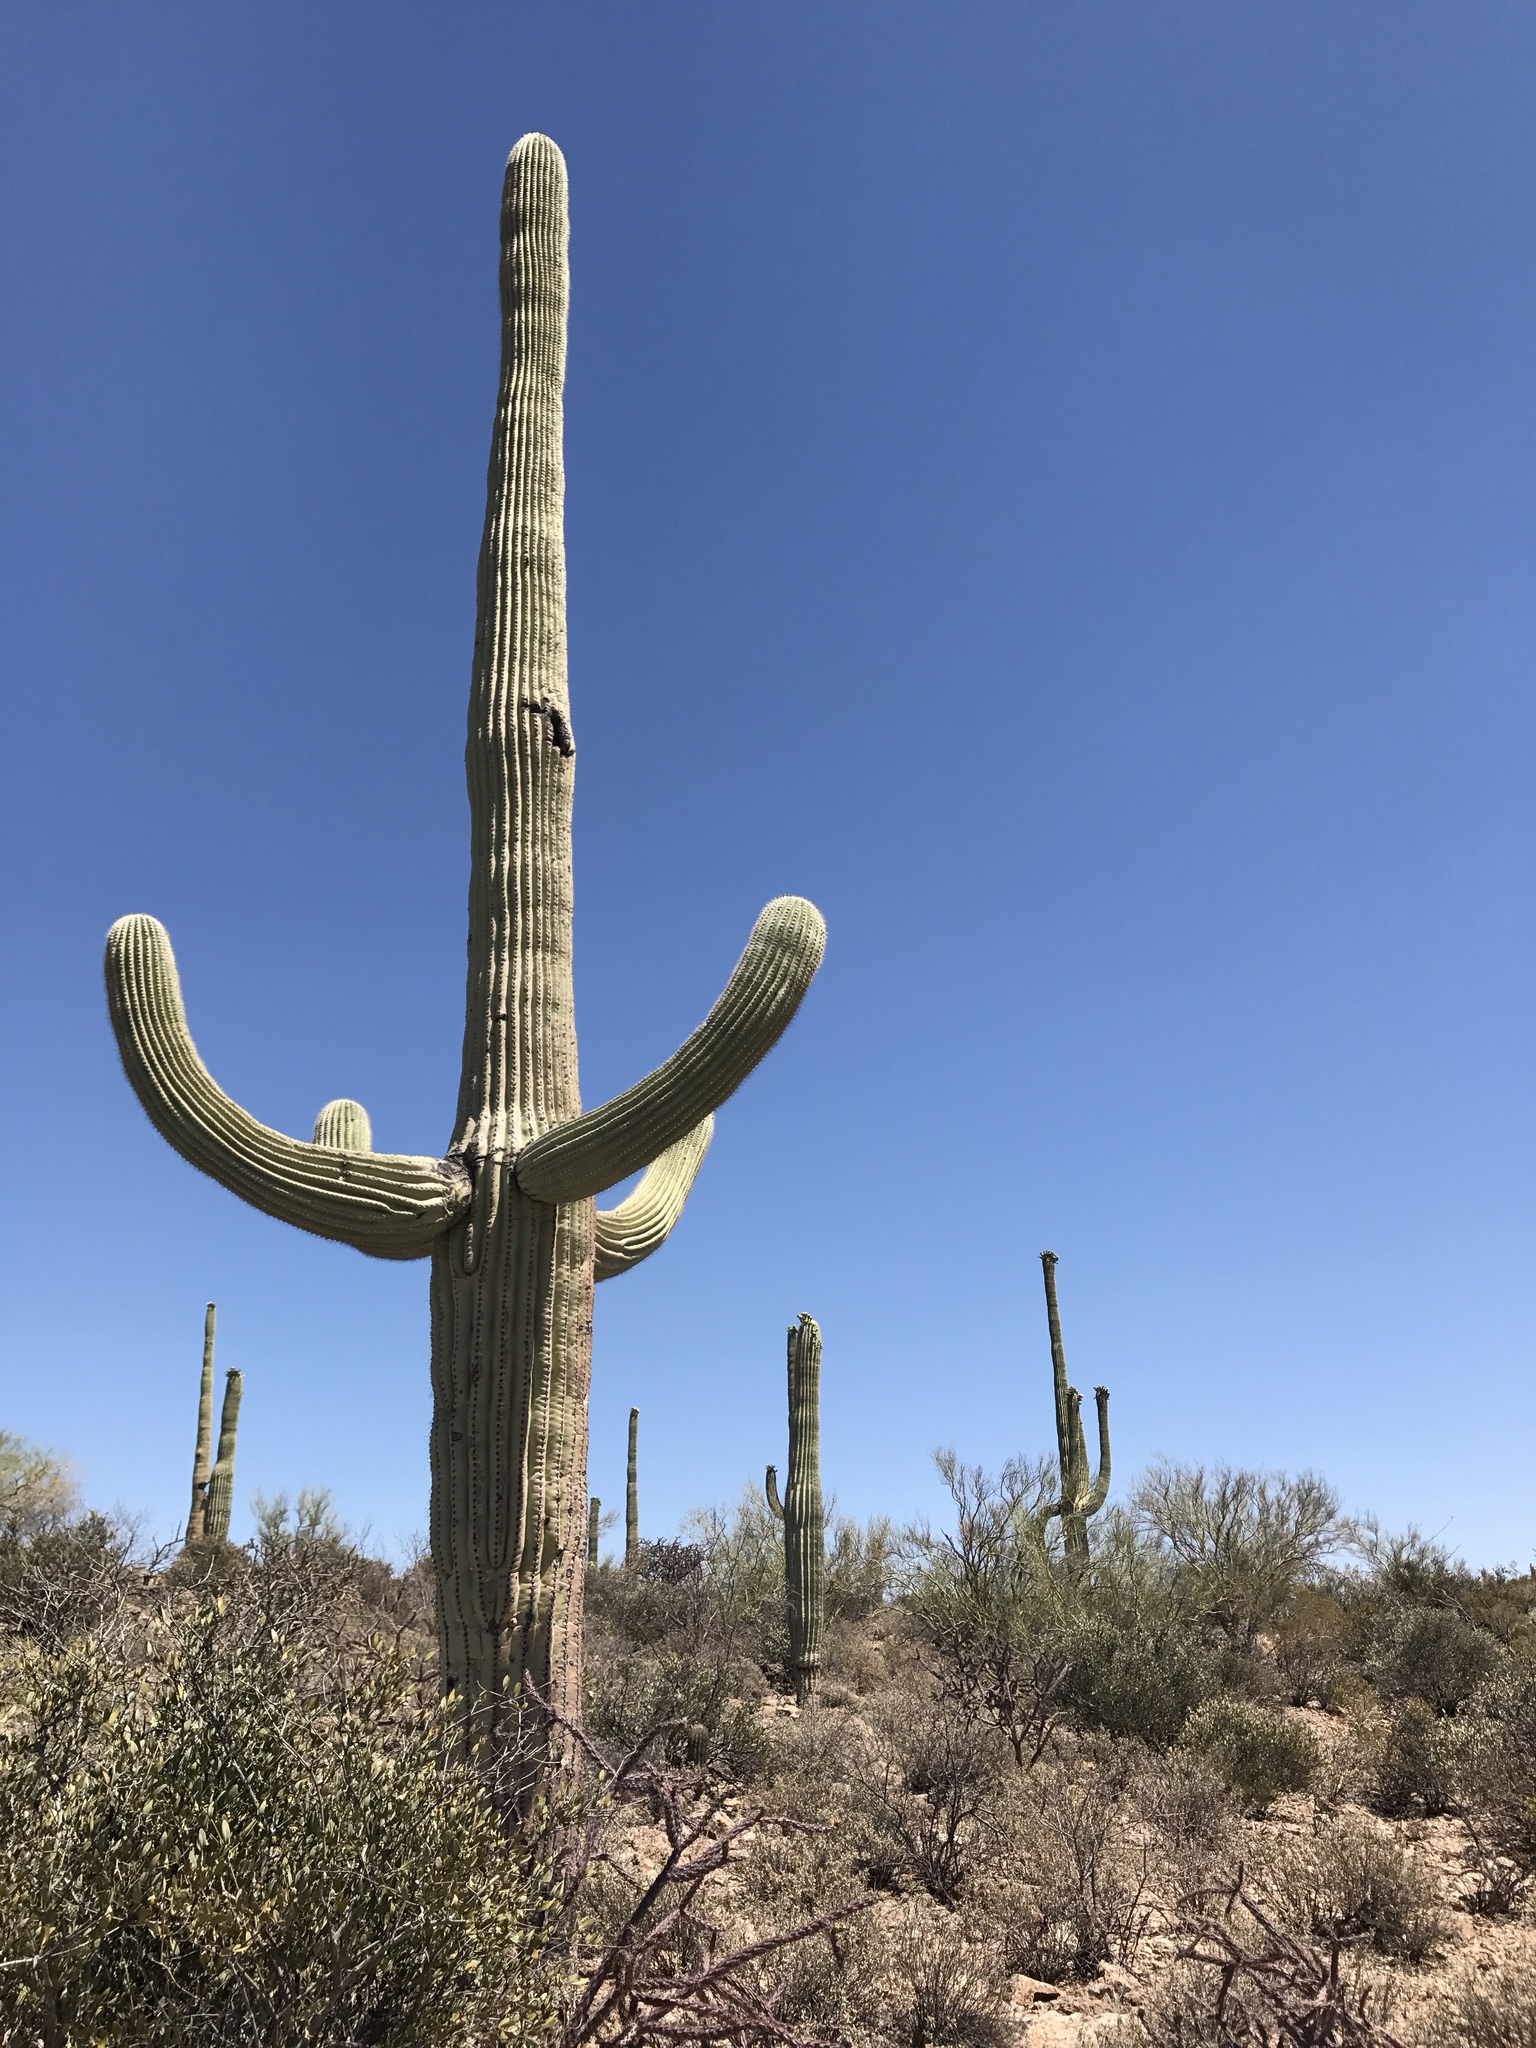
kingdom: Plantae
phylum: Tracheophyta
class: Magnoliopsida
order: Caryophyllales
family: Cactaceae
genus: Carnegiea
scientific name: Carnegiea gigantea
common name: Saguaro
